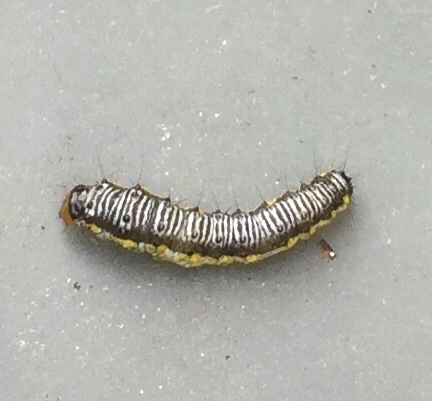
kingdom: Animalia
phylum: Arthropoda
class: Insecta
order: Lepidoptera
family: Crambidae
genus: Evergestis
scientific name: Evergestis rimosalis
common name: Cross-striped cabbageworm moth
